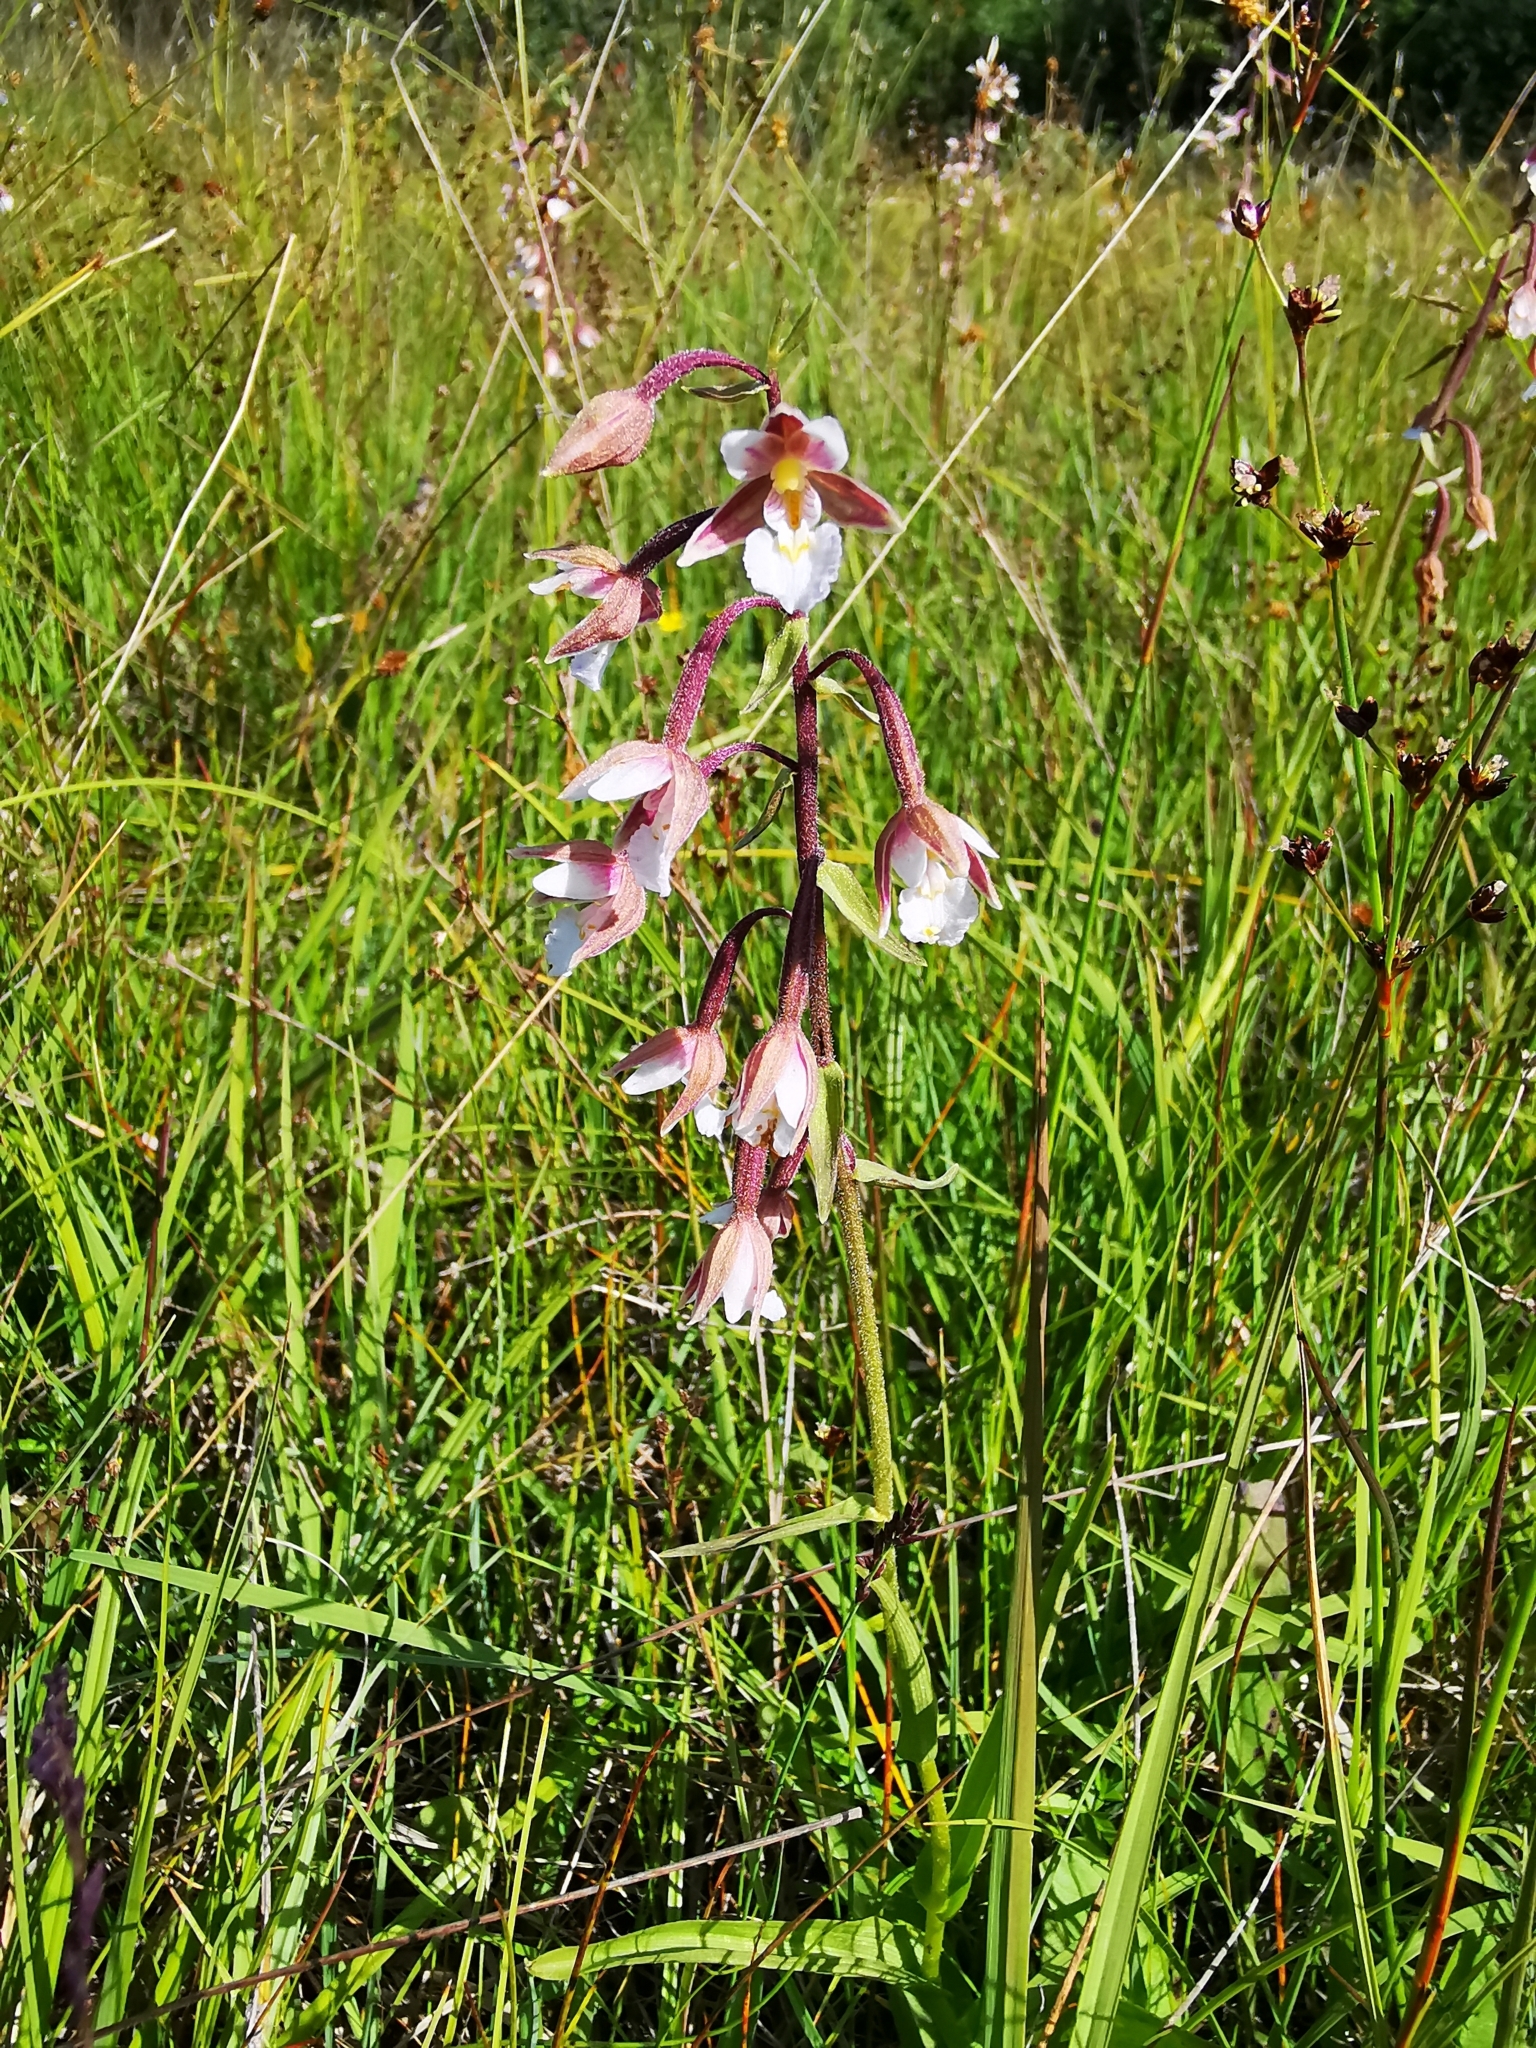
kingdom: Plantae
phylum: Tracheophyta
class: Liliopsida
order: Asparagales
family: Orchidaceae
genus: Epipactis
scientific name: Epipactis palustris
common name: Marsh helleborine
